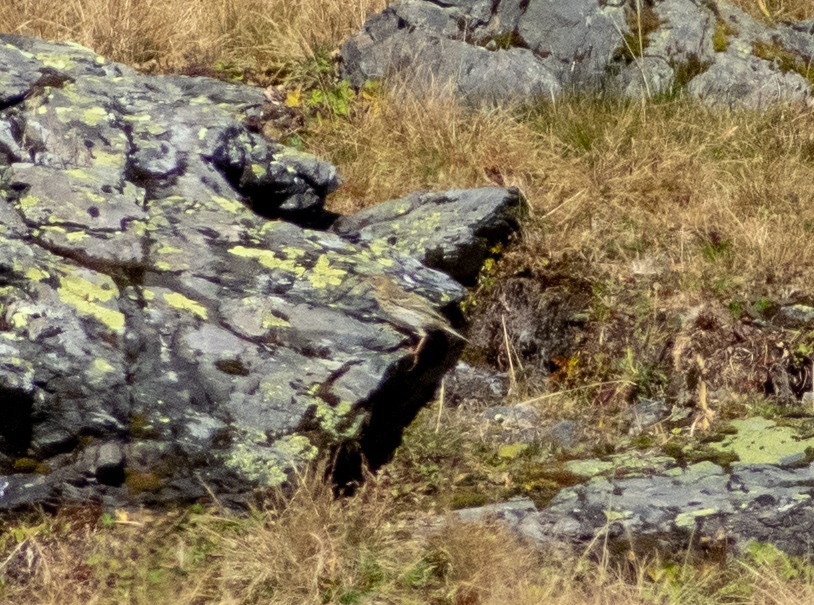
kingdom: Animalia
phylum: Chordata
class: Aves
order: Passeriformes
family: Motacillidae
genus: Anthus
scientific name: Anthus spinoletta
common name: Water pipit
